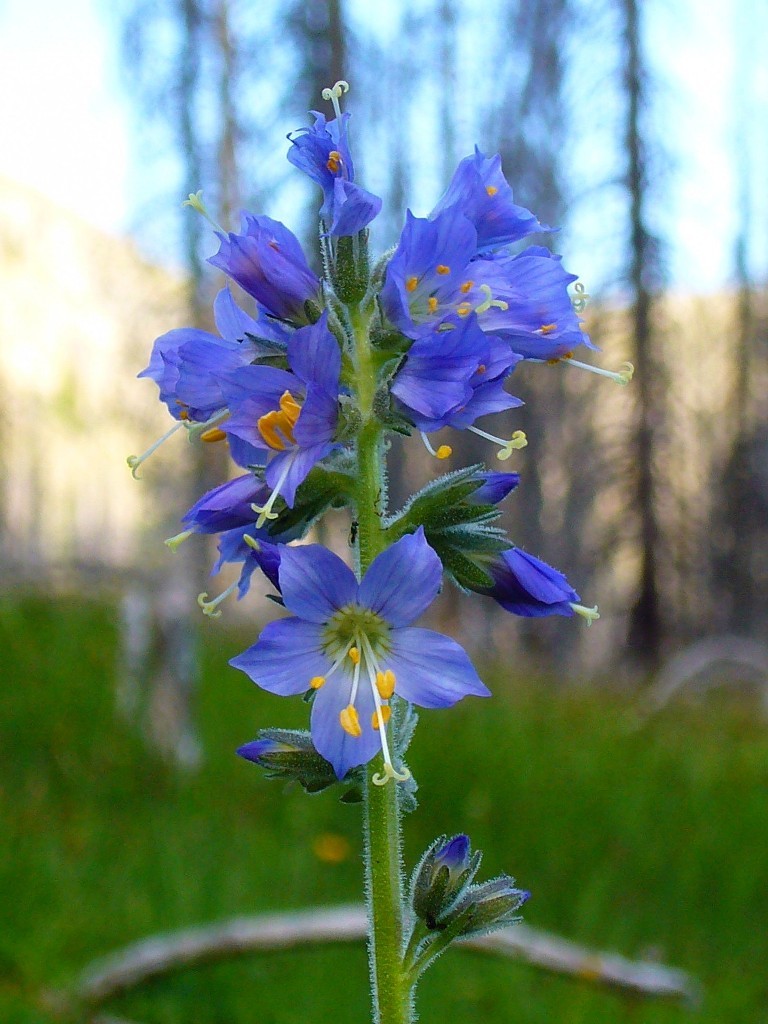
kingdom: Plantae
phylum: Tracheophyta
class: Magnoliopsida
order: Ericales
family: Polemoniaceae
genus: Polemonium
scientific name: Polemonium occidentale
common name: Western jacob's-ladder
